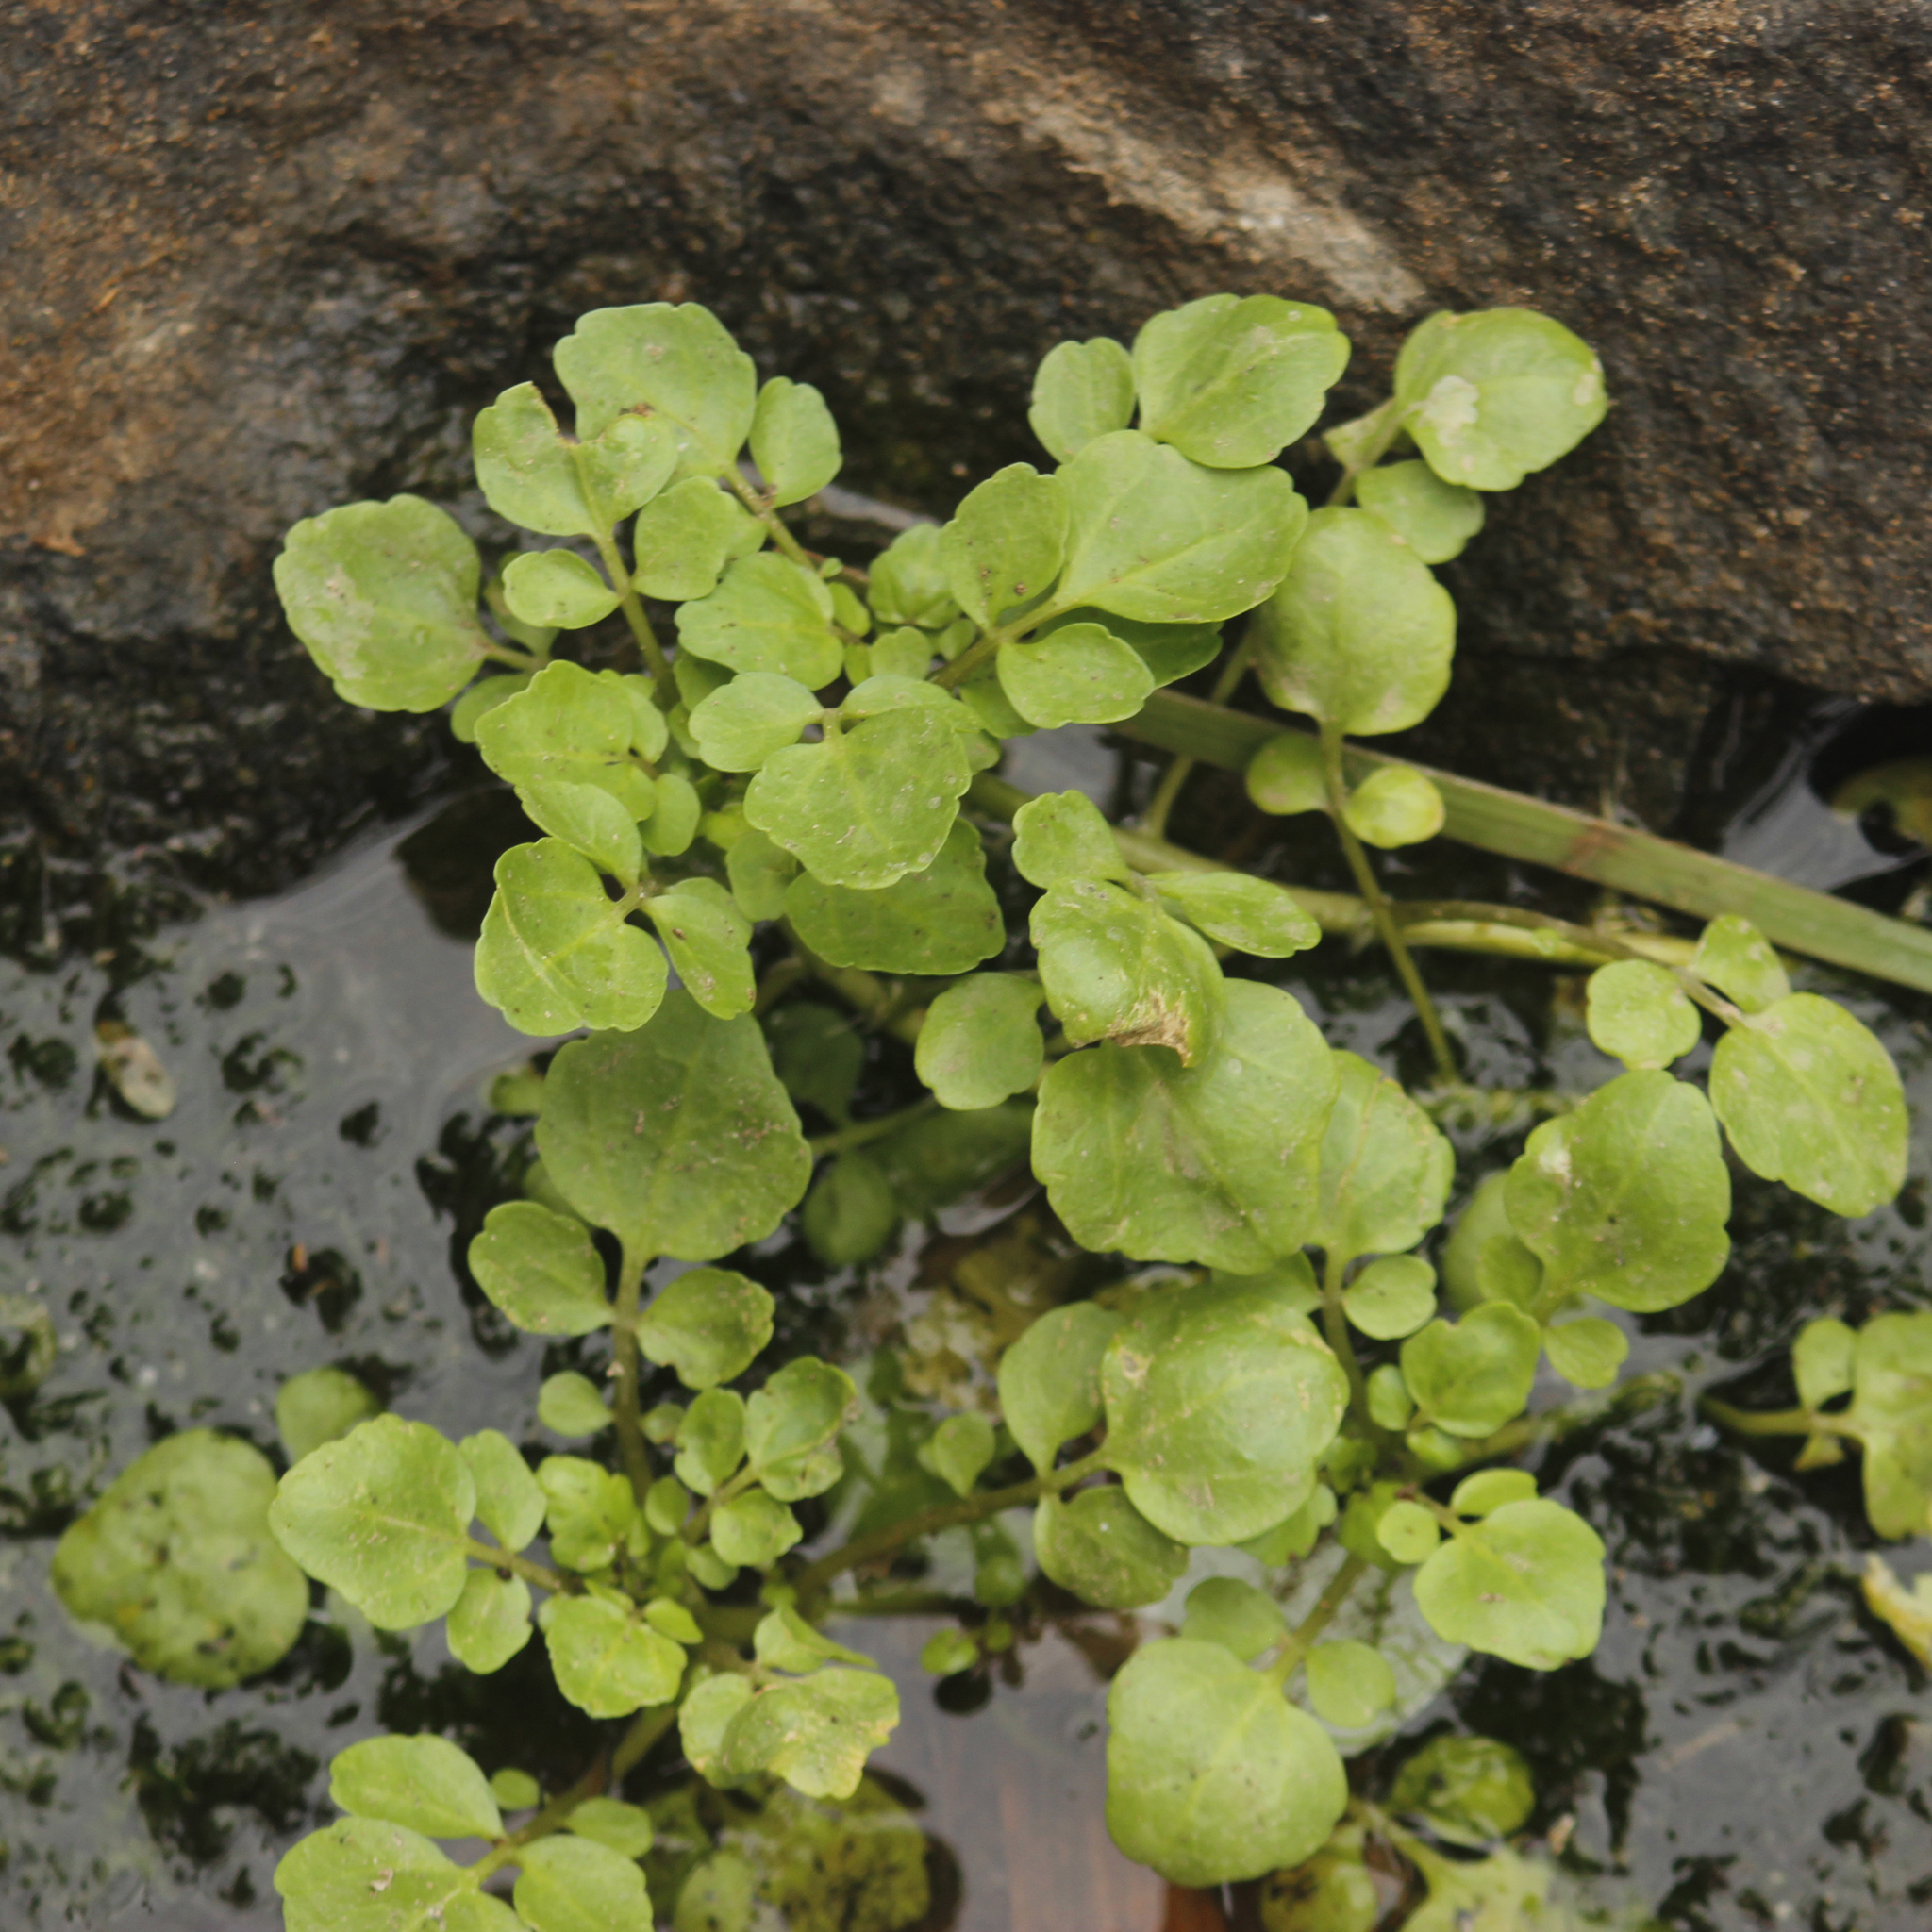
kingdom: Plantae
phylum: Tracheophyta
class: Magnoliopsida
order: Brassicales
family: Brassicaceae
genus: Nasturtium
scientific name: Nasturtium officinale
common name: Watercress
